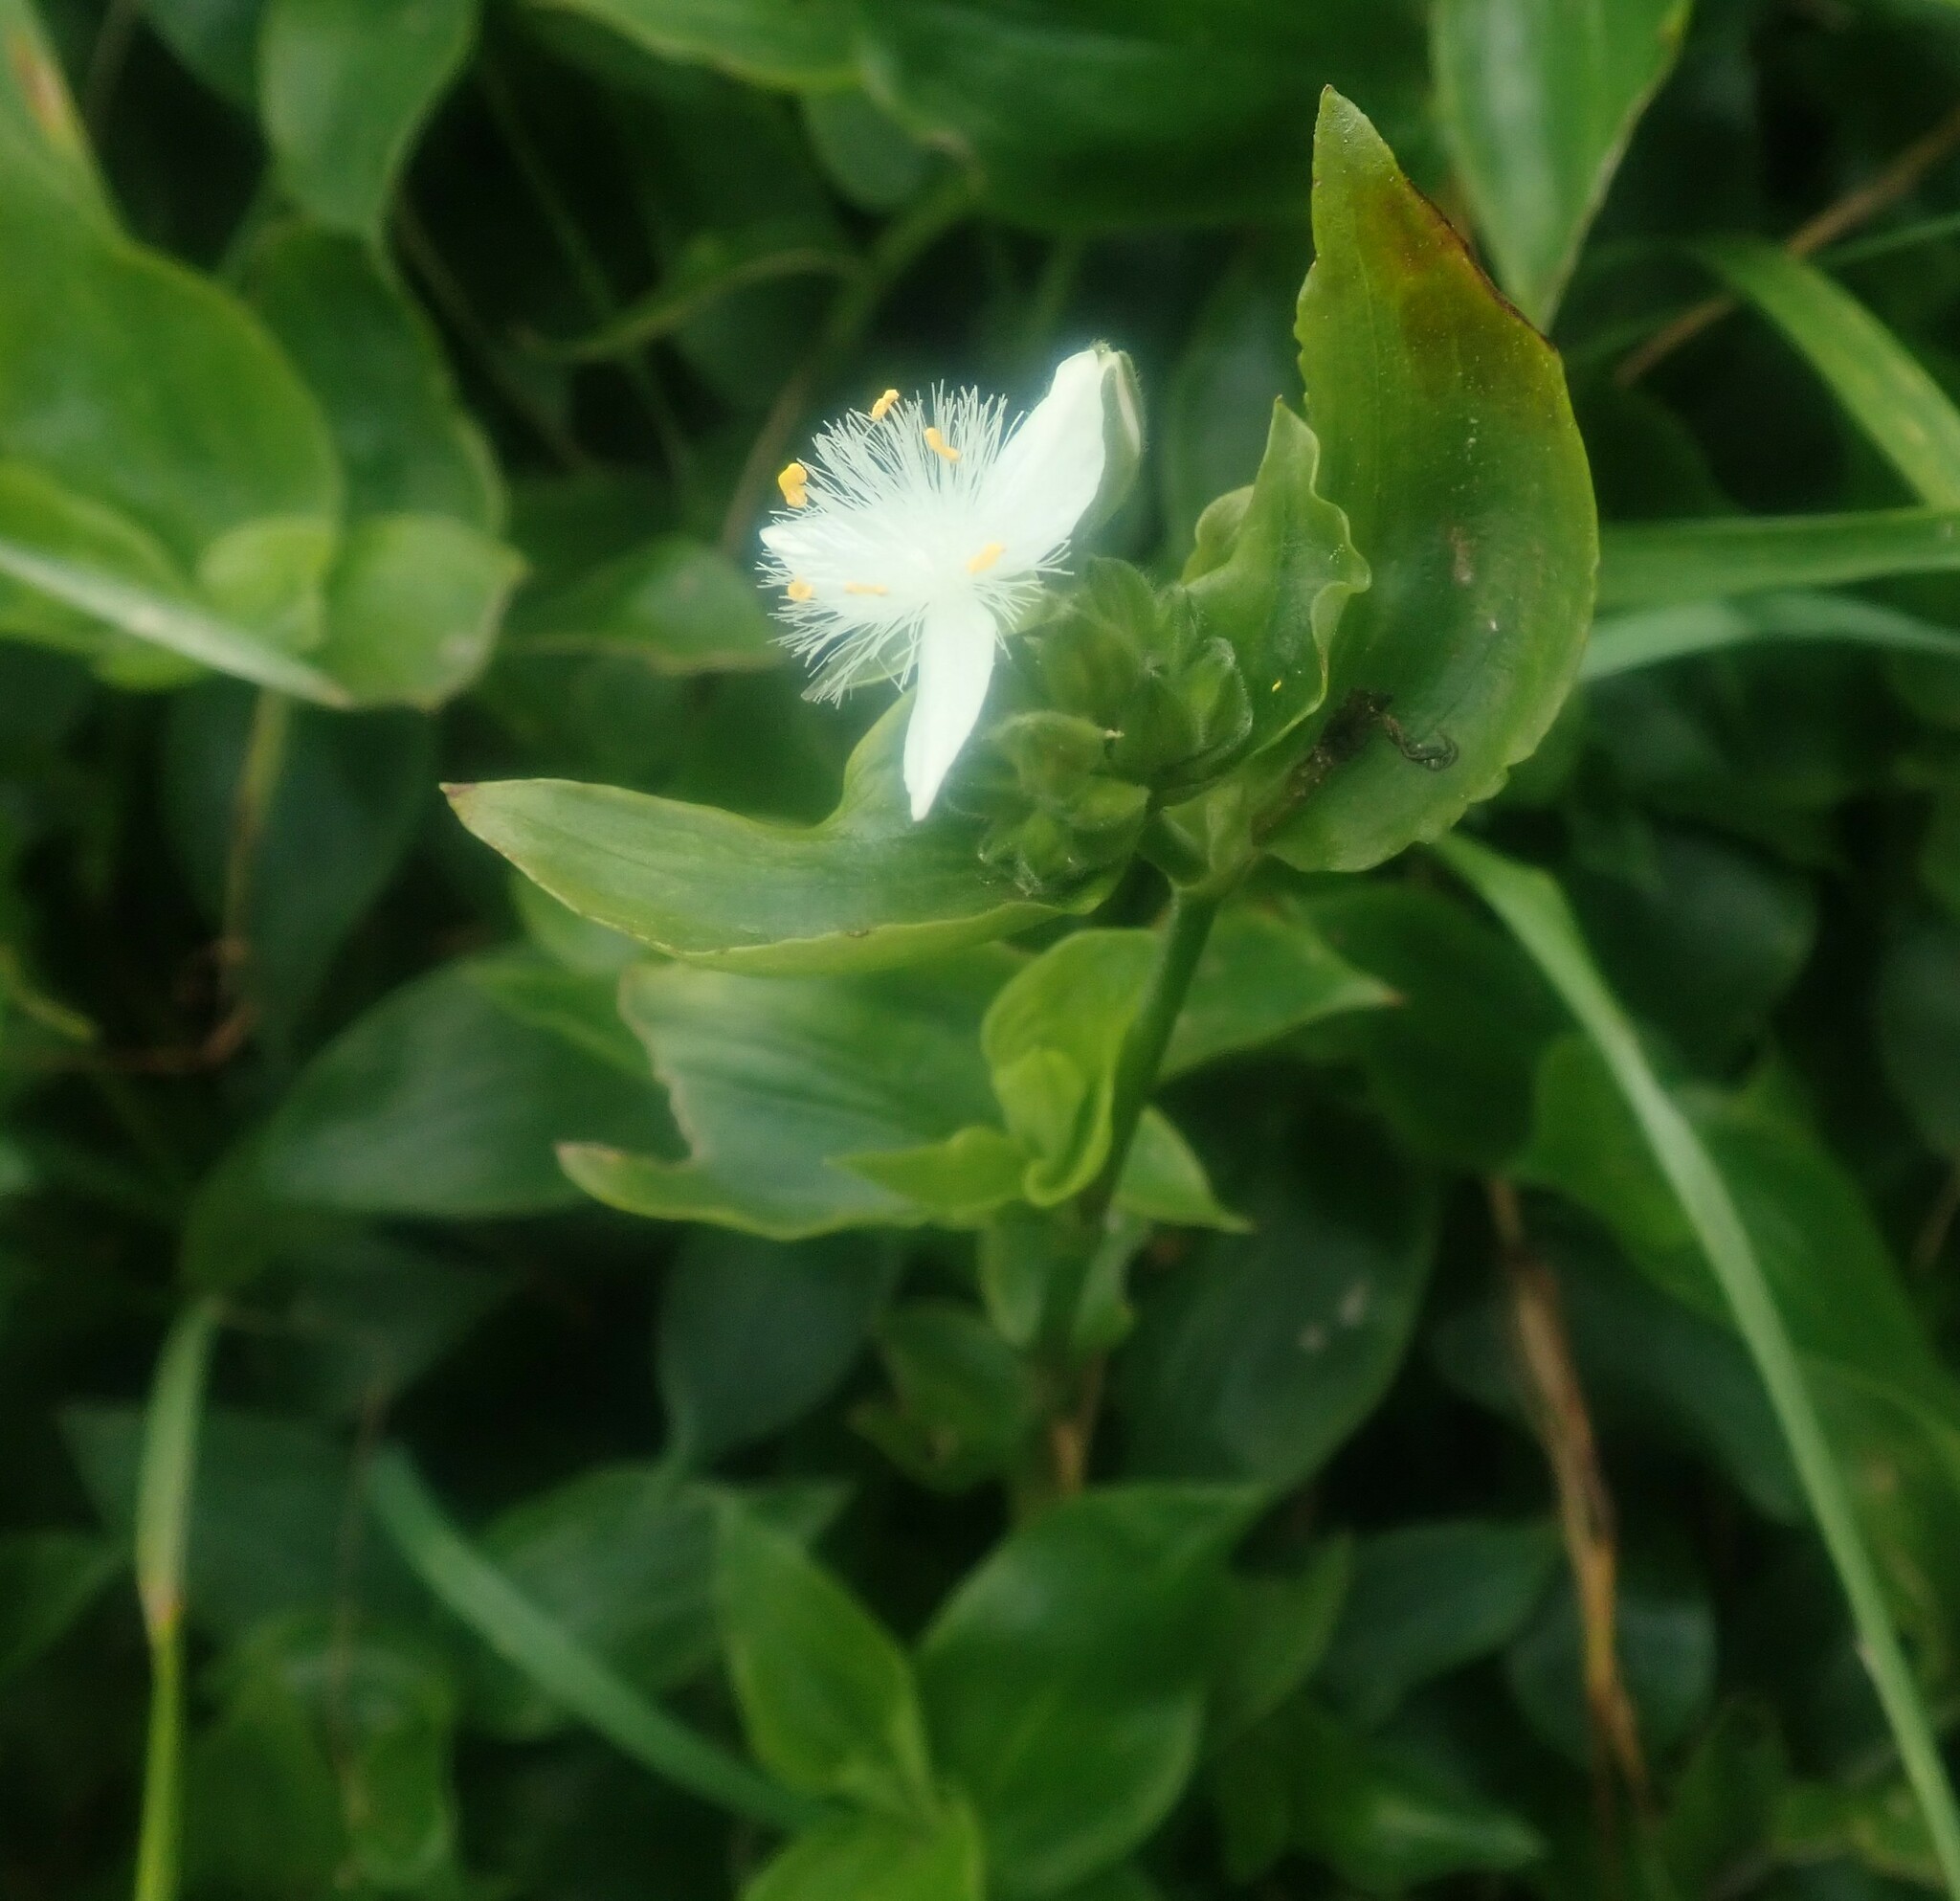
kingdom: Plantae
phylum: Tracheophyta
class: Liliopsida
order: Commelinales
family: Commelinaceae
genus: Tradescantia
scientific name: Tradescantia fluminensis
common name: Wandering-jew
